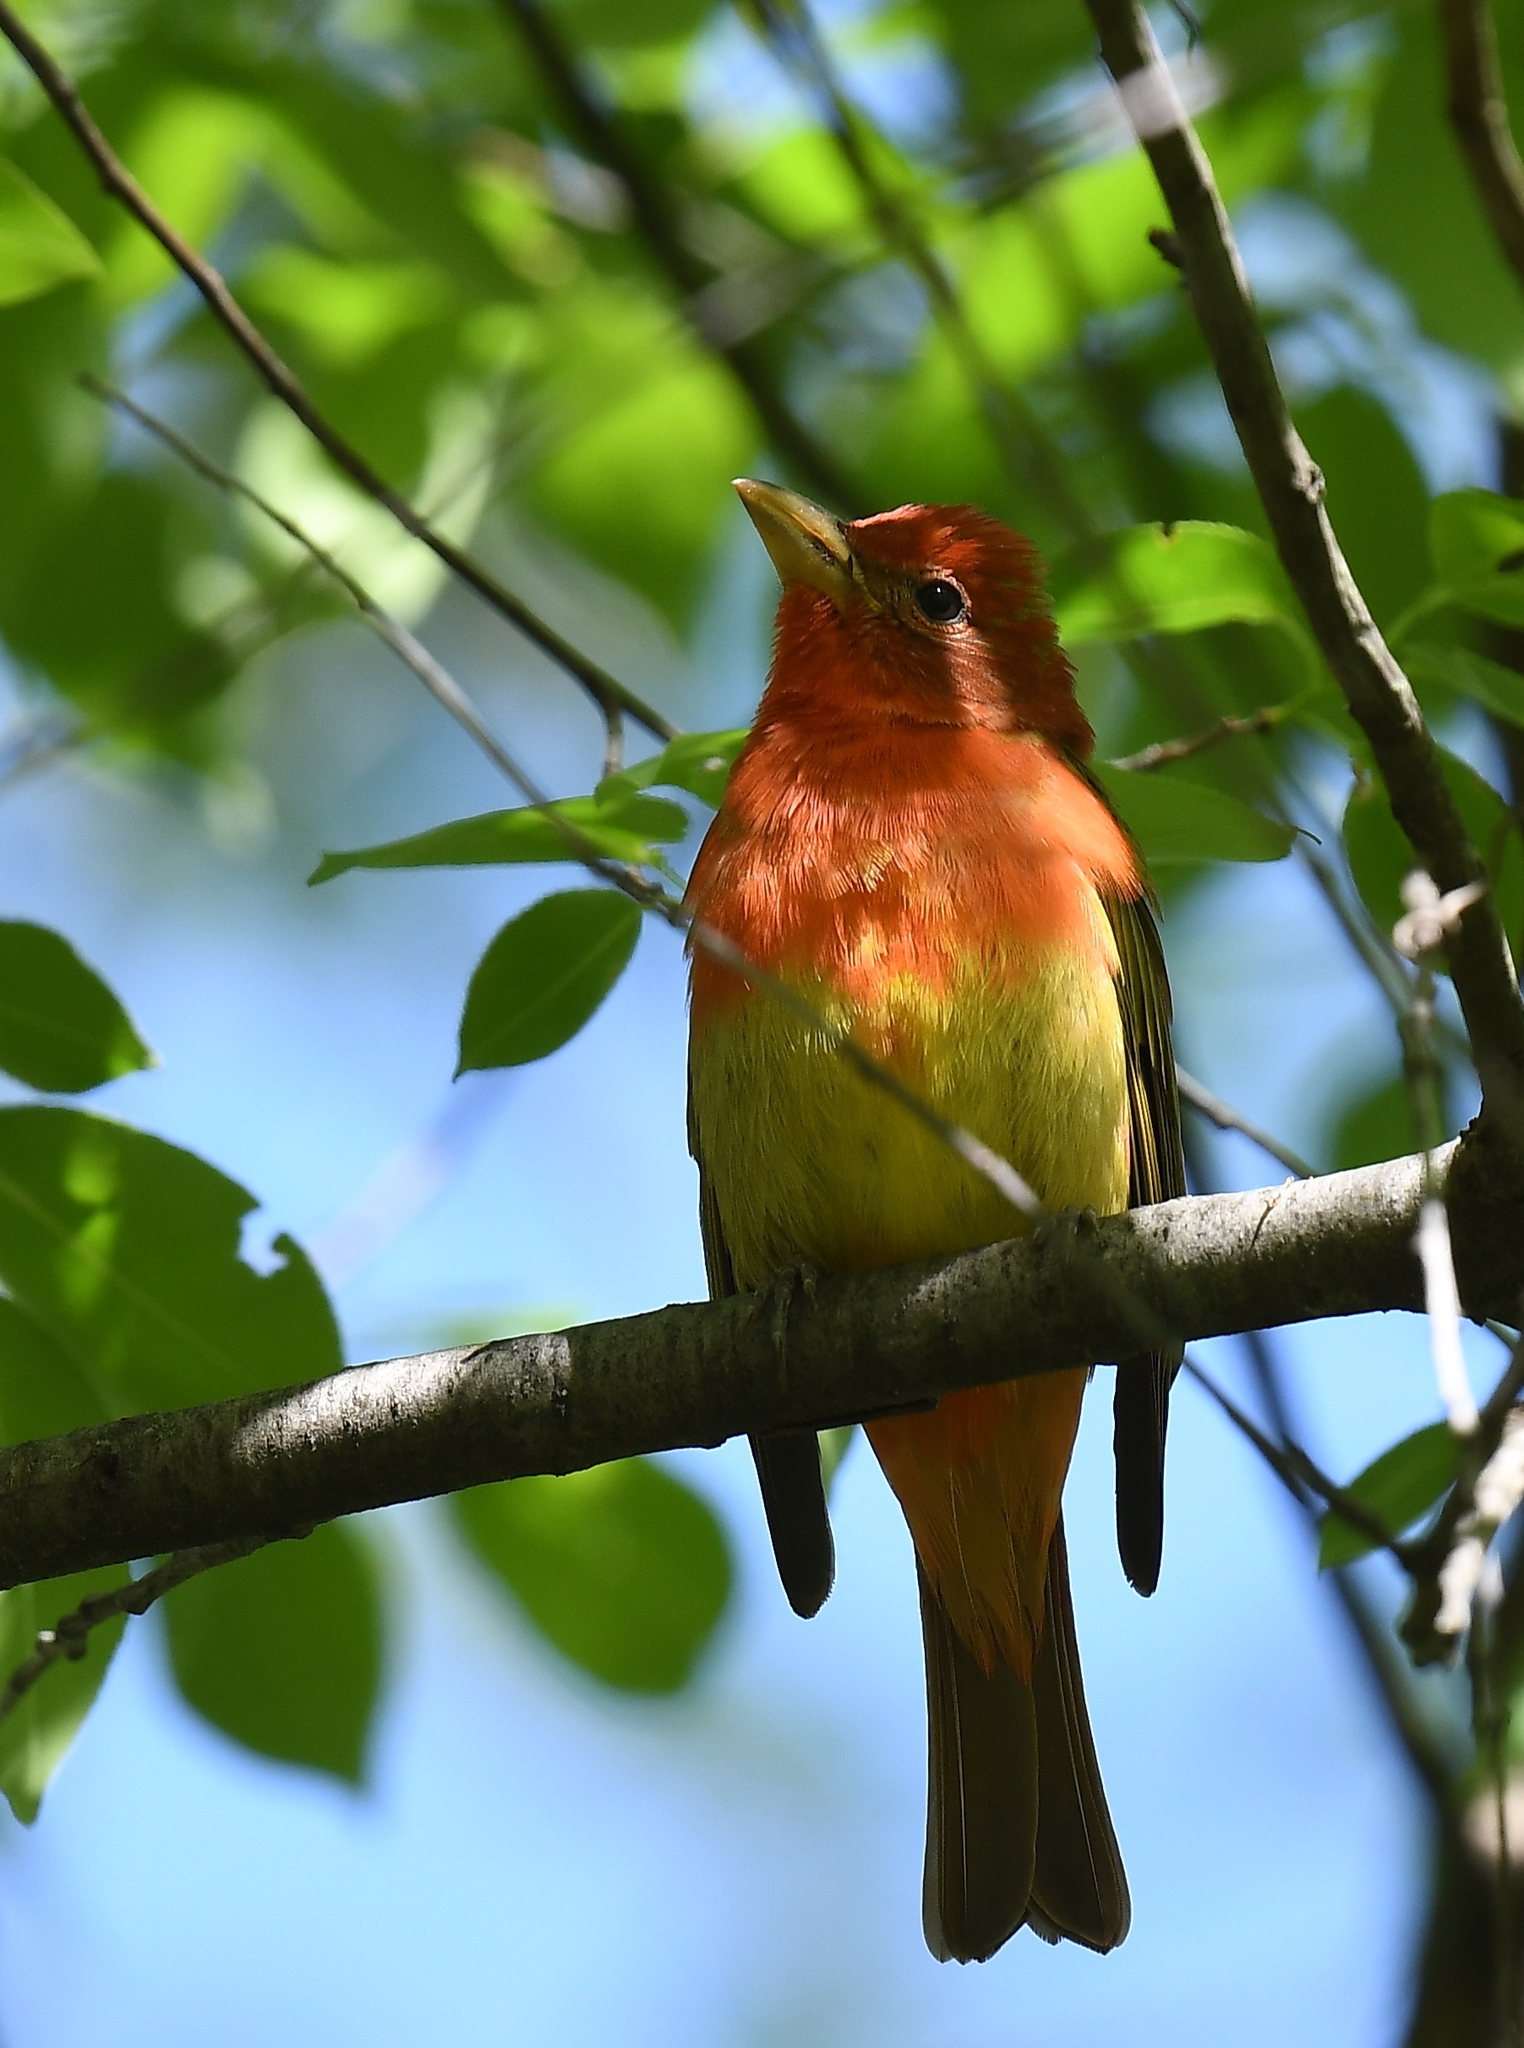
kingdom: Animalia
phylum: Chordata
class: Aves
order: Passeriformes
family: Cardinalidae
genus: Piranga
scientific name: Piranga rubra
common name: Summer tanager
